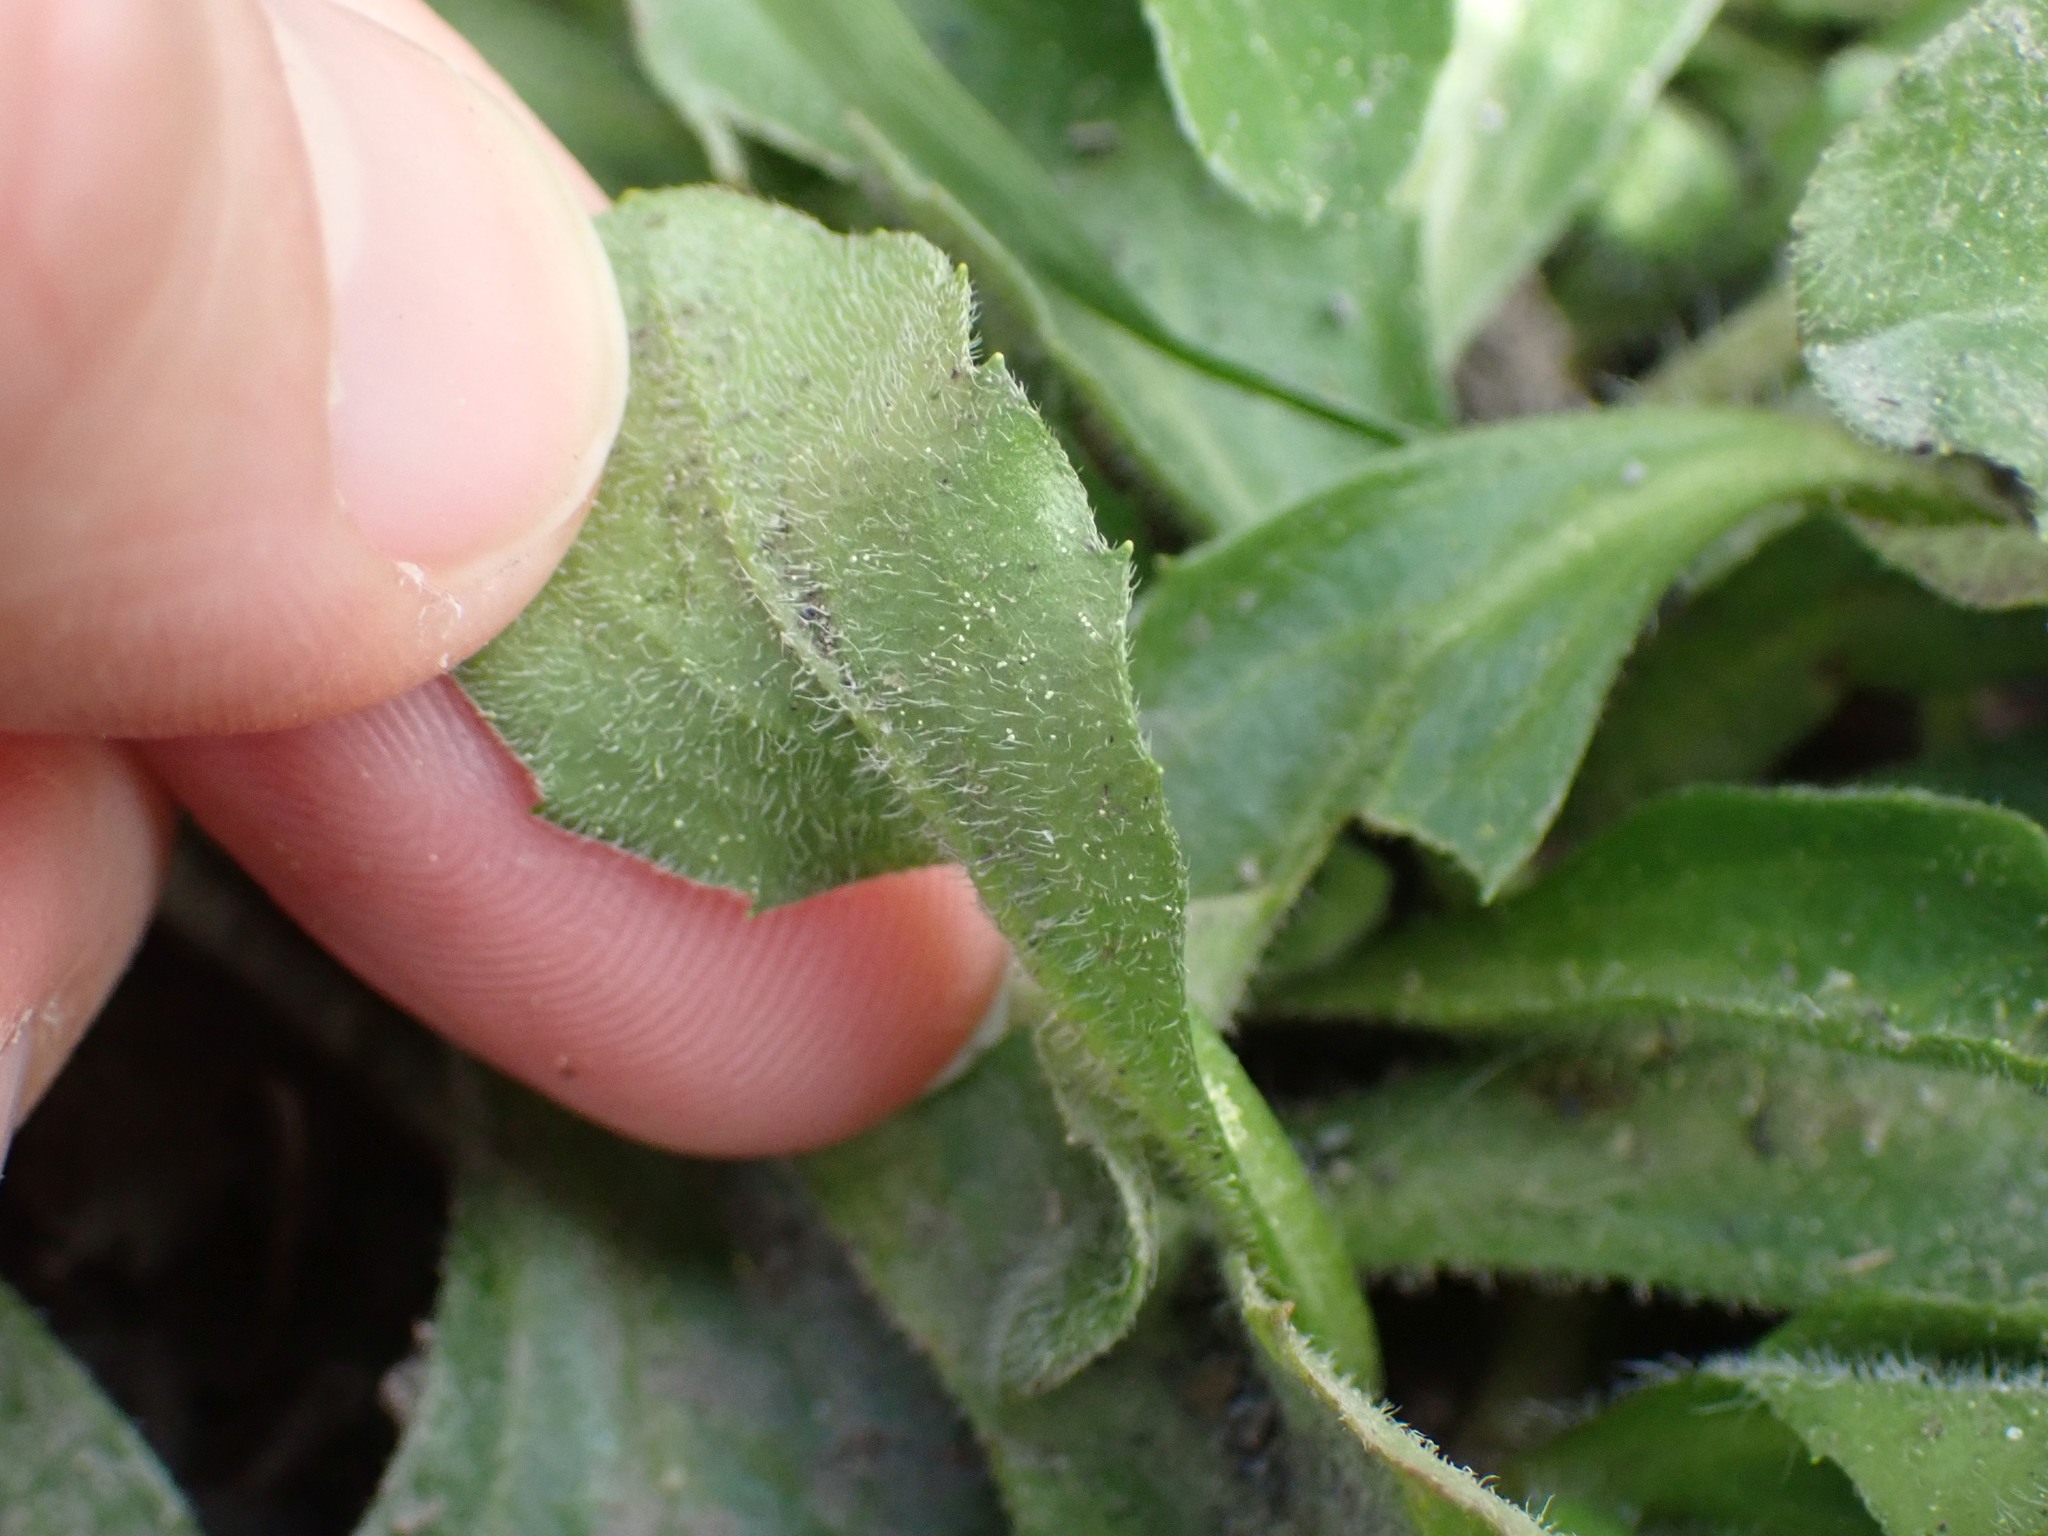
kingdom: Plantae
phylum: Tracheophyta
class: Magnoliopsida
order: Asterales
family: Asteraceae
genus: Bellis
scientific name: Bellis perennis
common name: Lawndaisy
